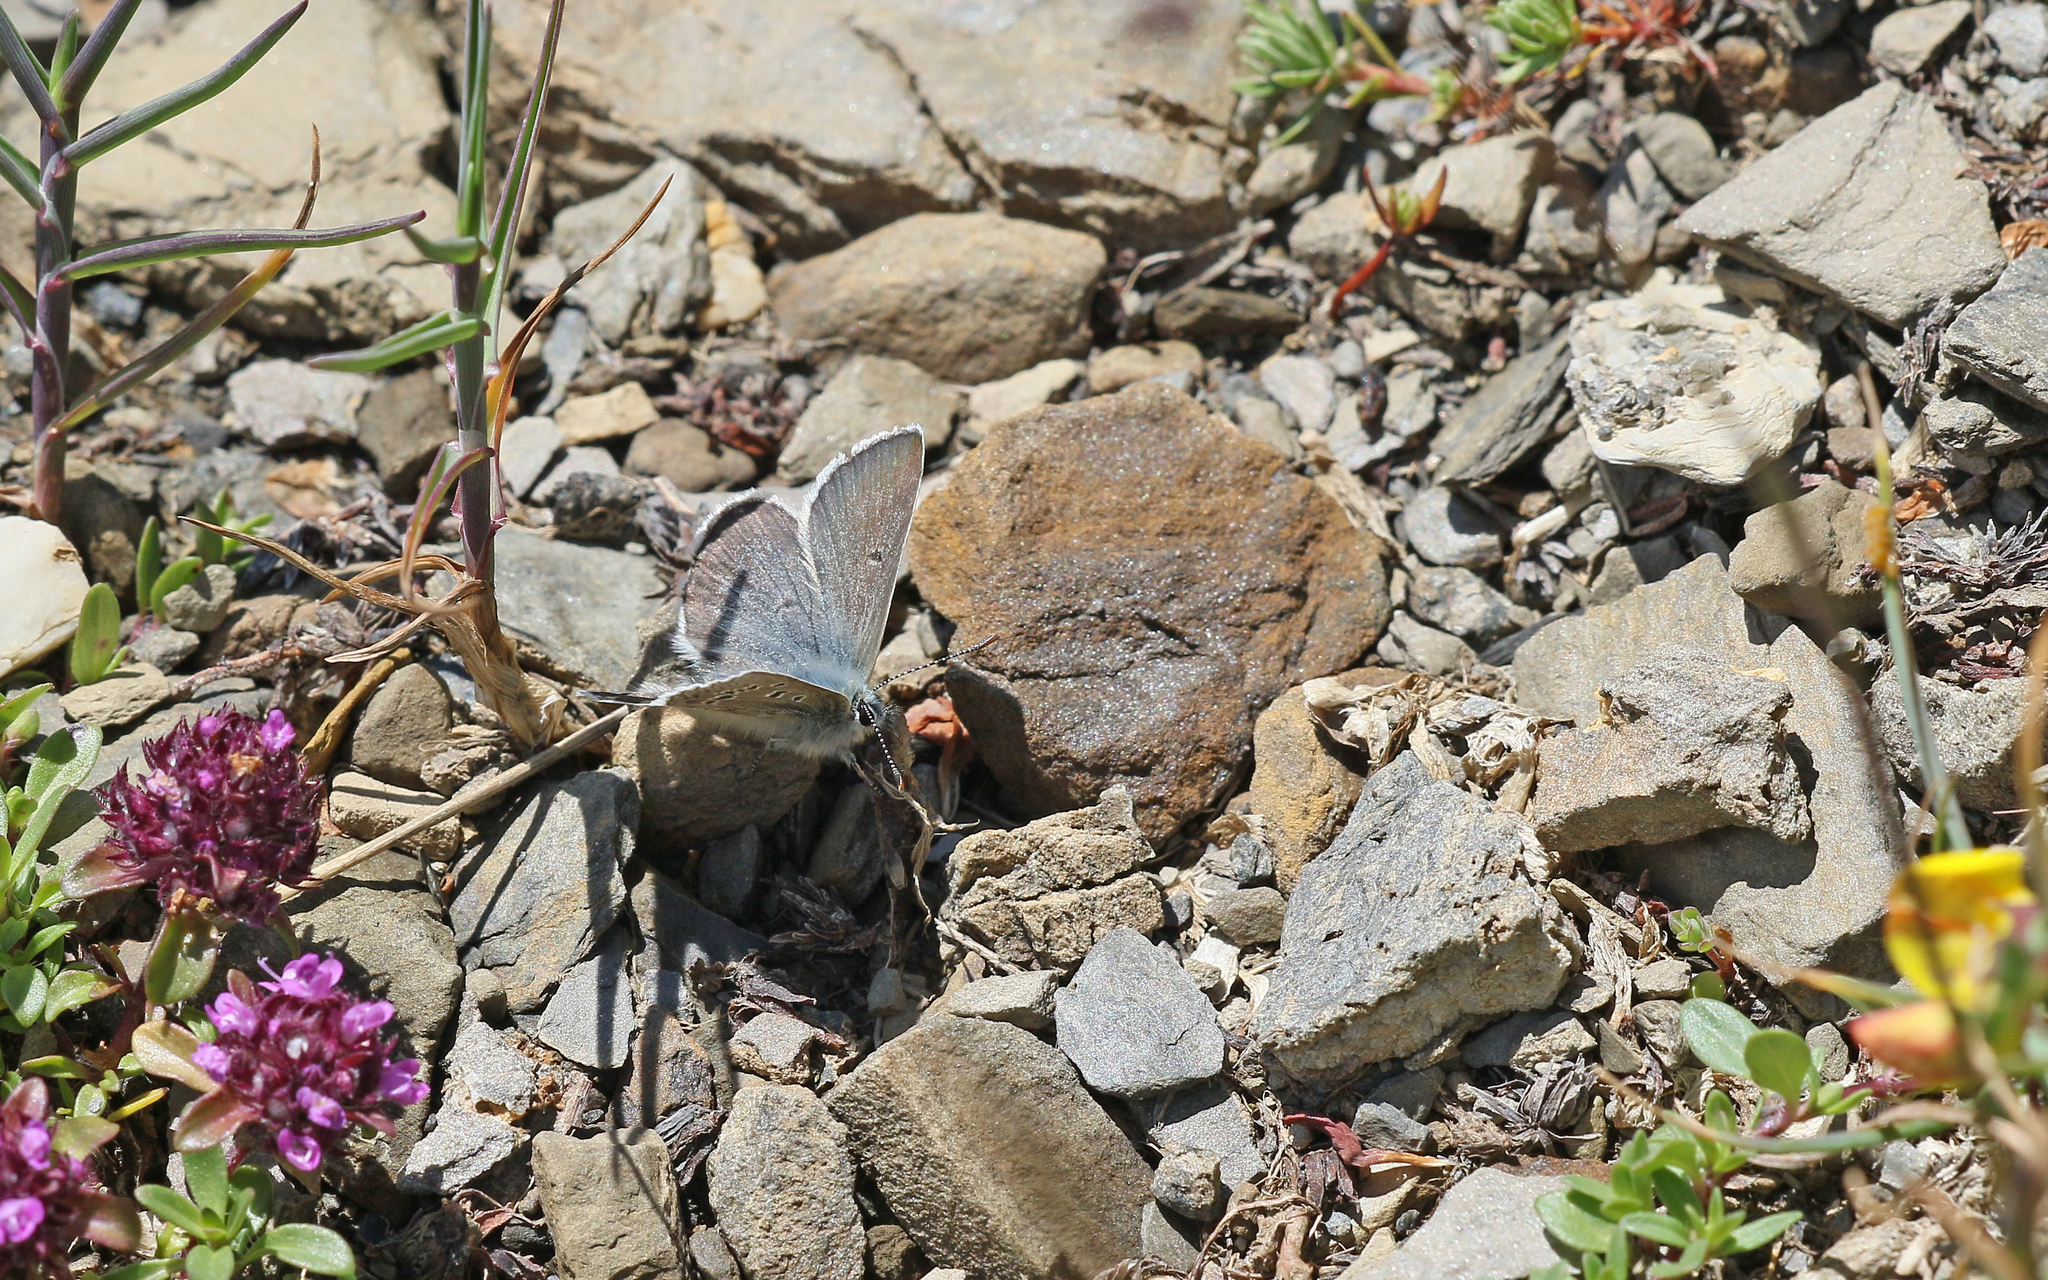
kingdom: Animalia
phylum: Arthropoda
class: Insecta
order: Lepidoptera
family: Lycaenidae
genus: Agriades
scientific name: Agriades glandon
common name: Glandon blue
